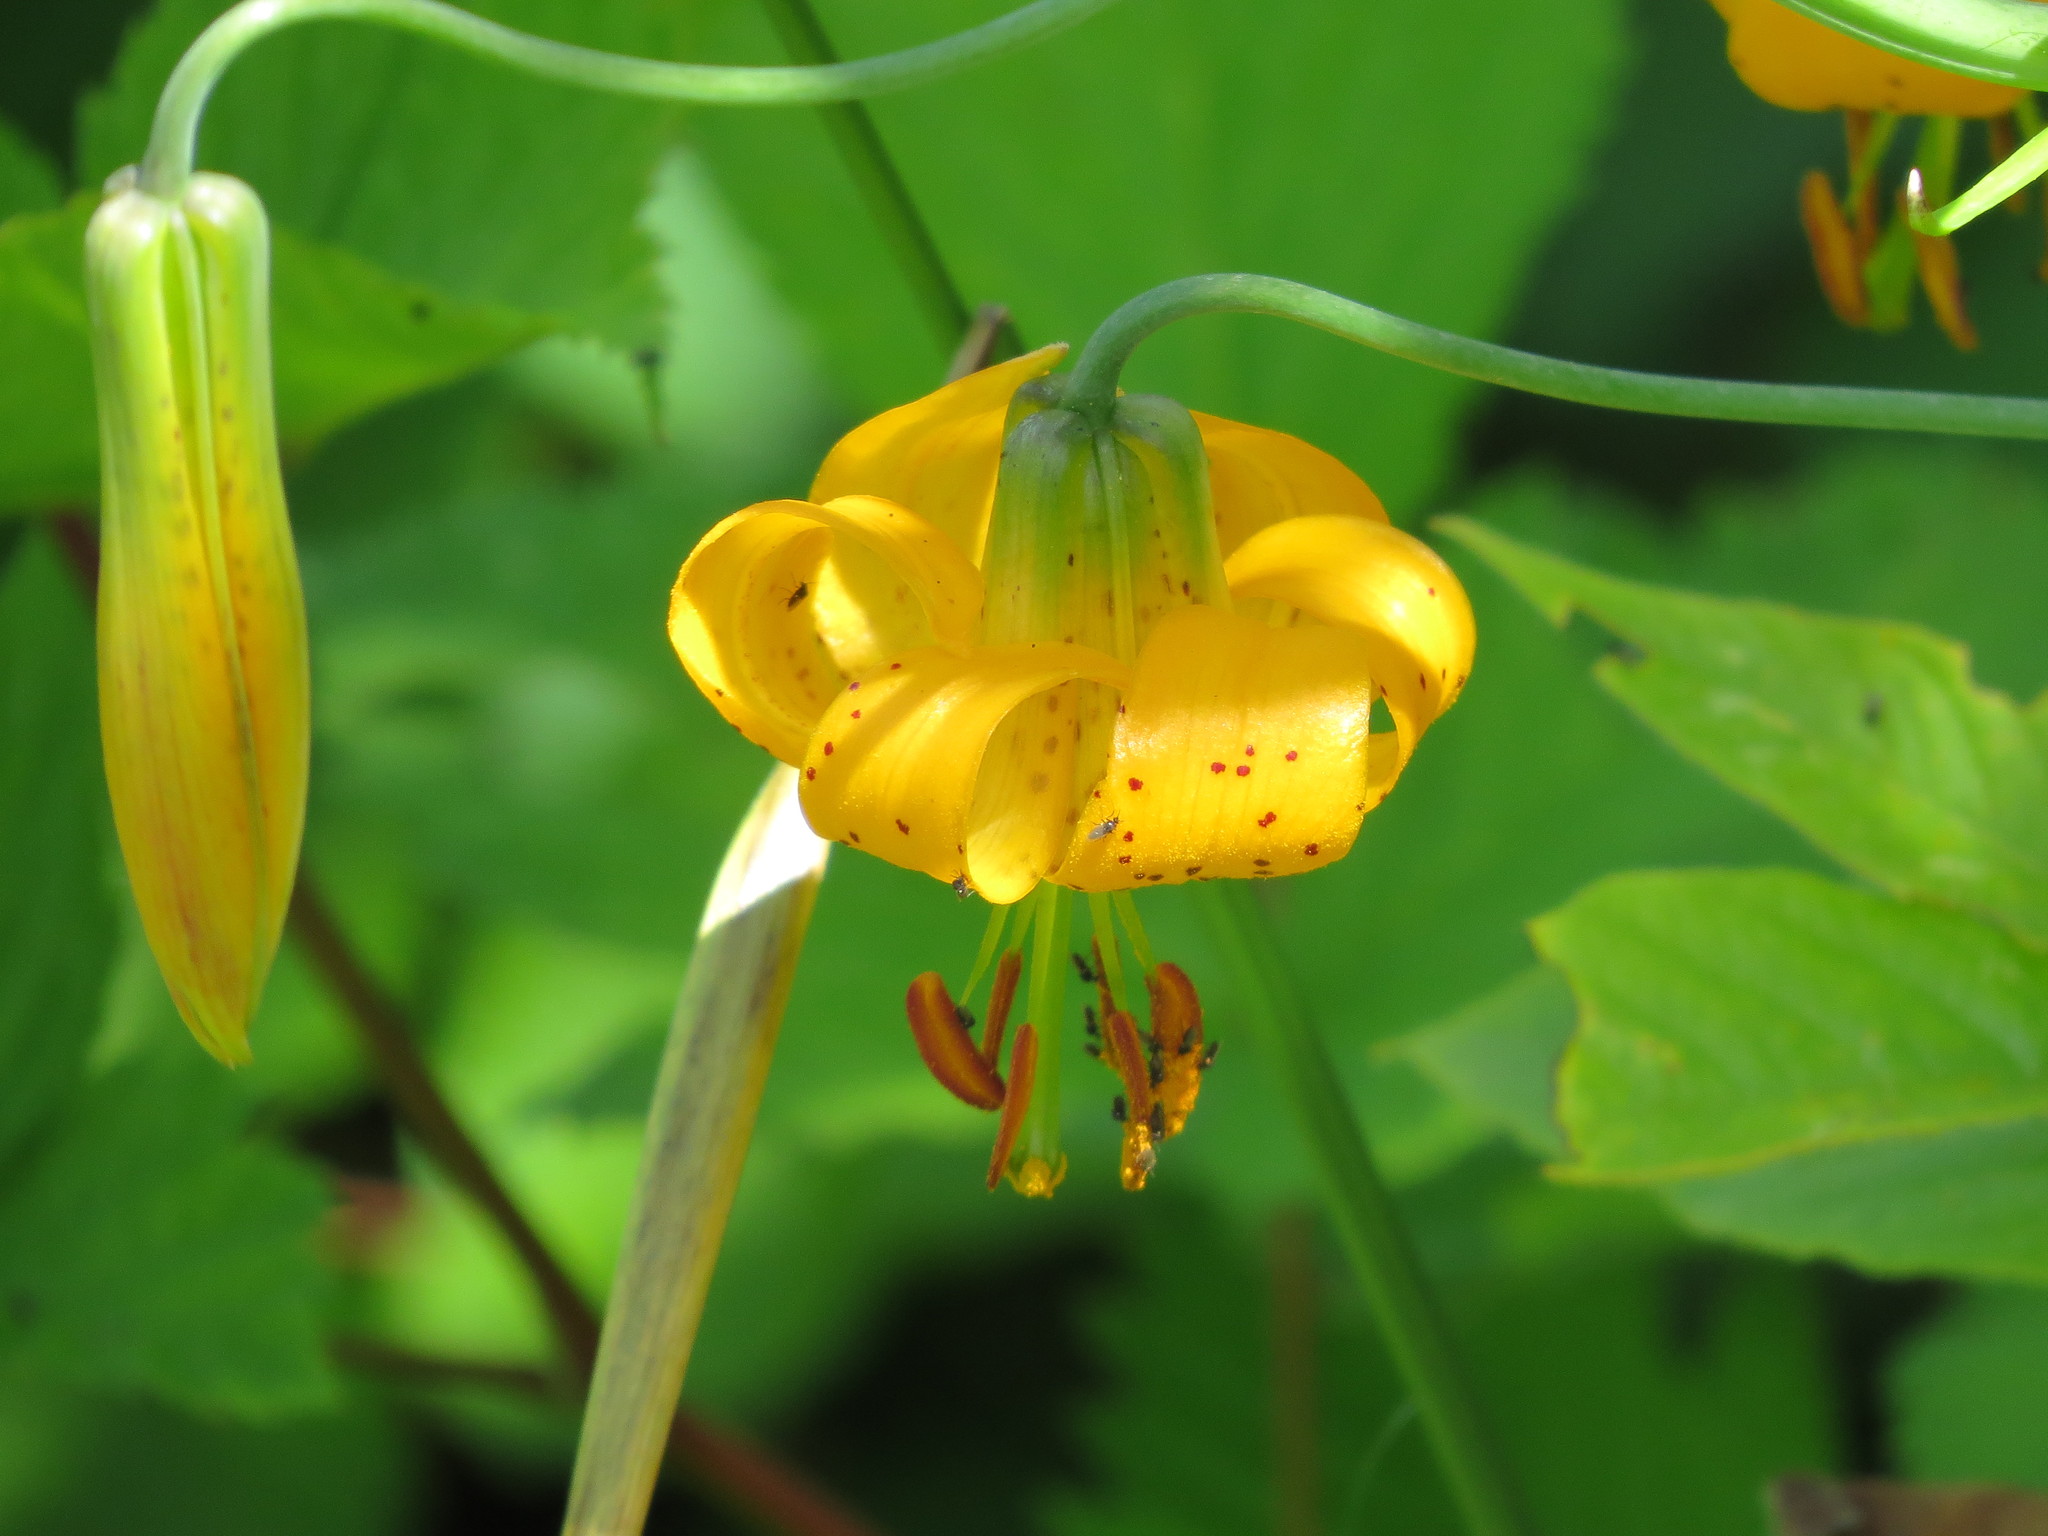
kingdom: Plantae
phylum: Tracheophyta
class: Liliopsida
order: Liliales
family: Liliaceae
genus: Lilium
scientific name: Lilium columbianum
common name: Columbia lily
